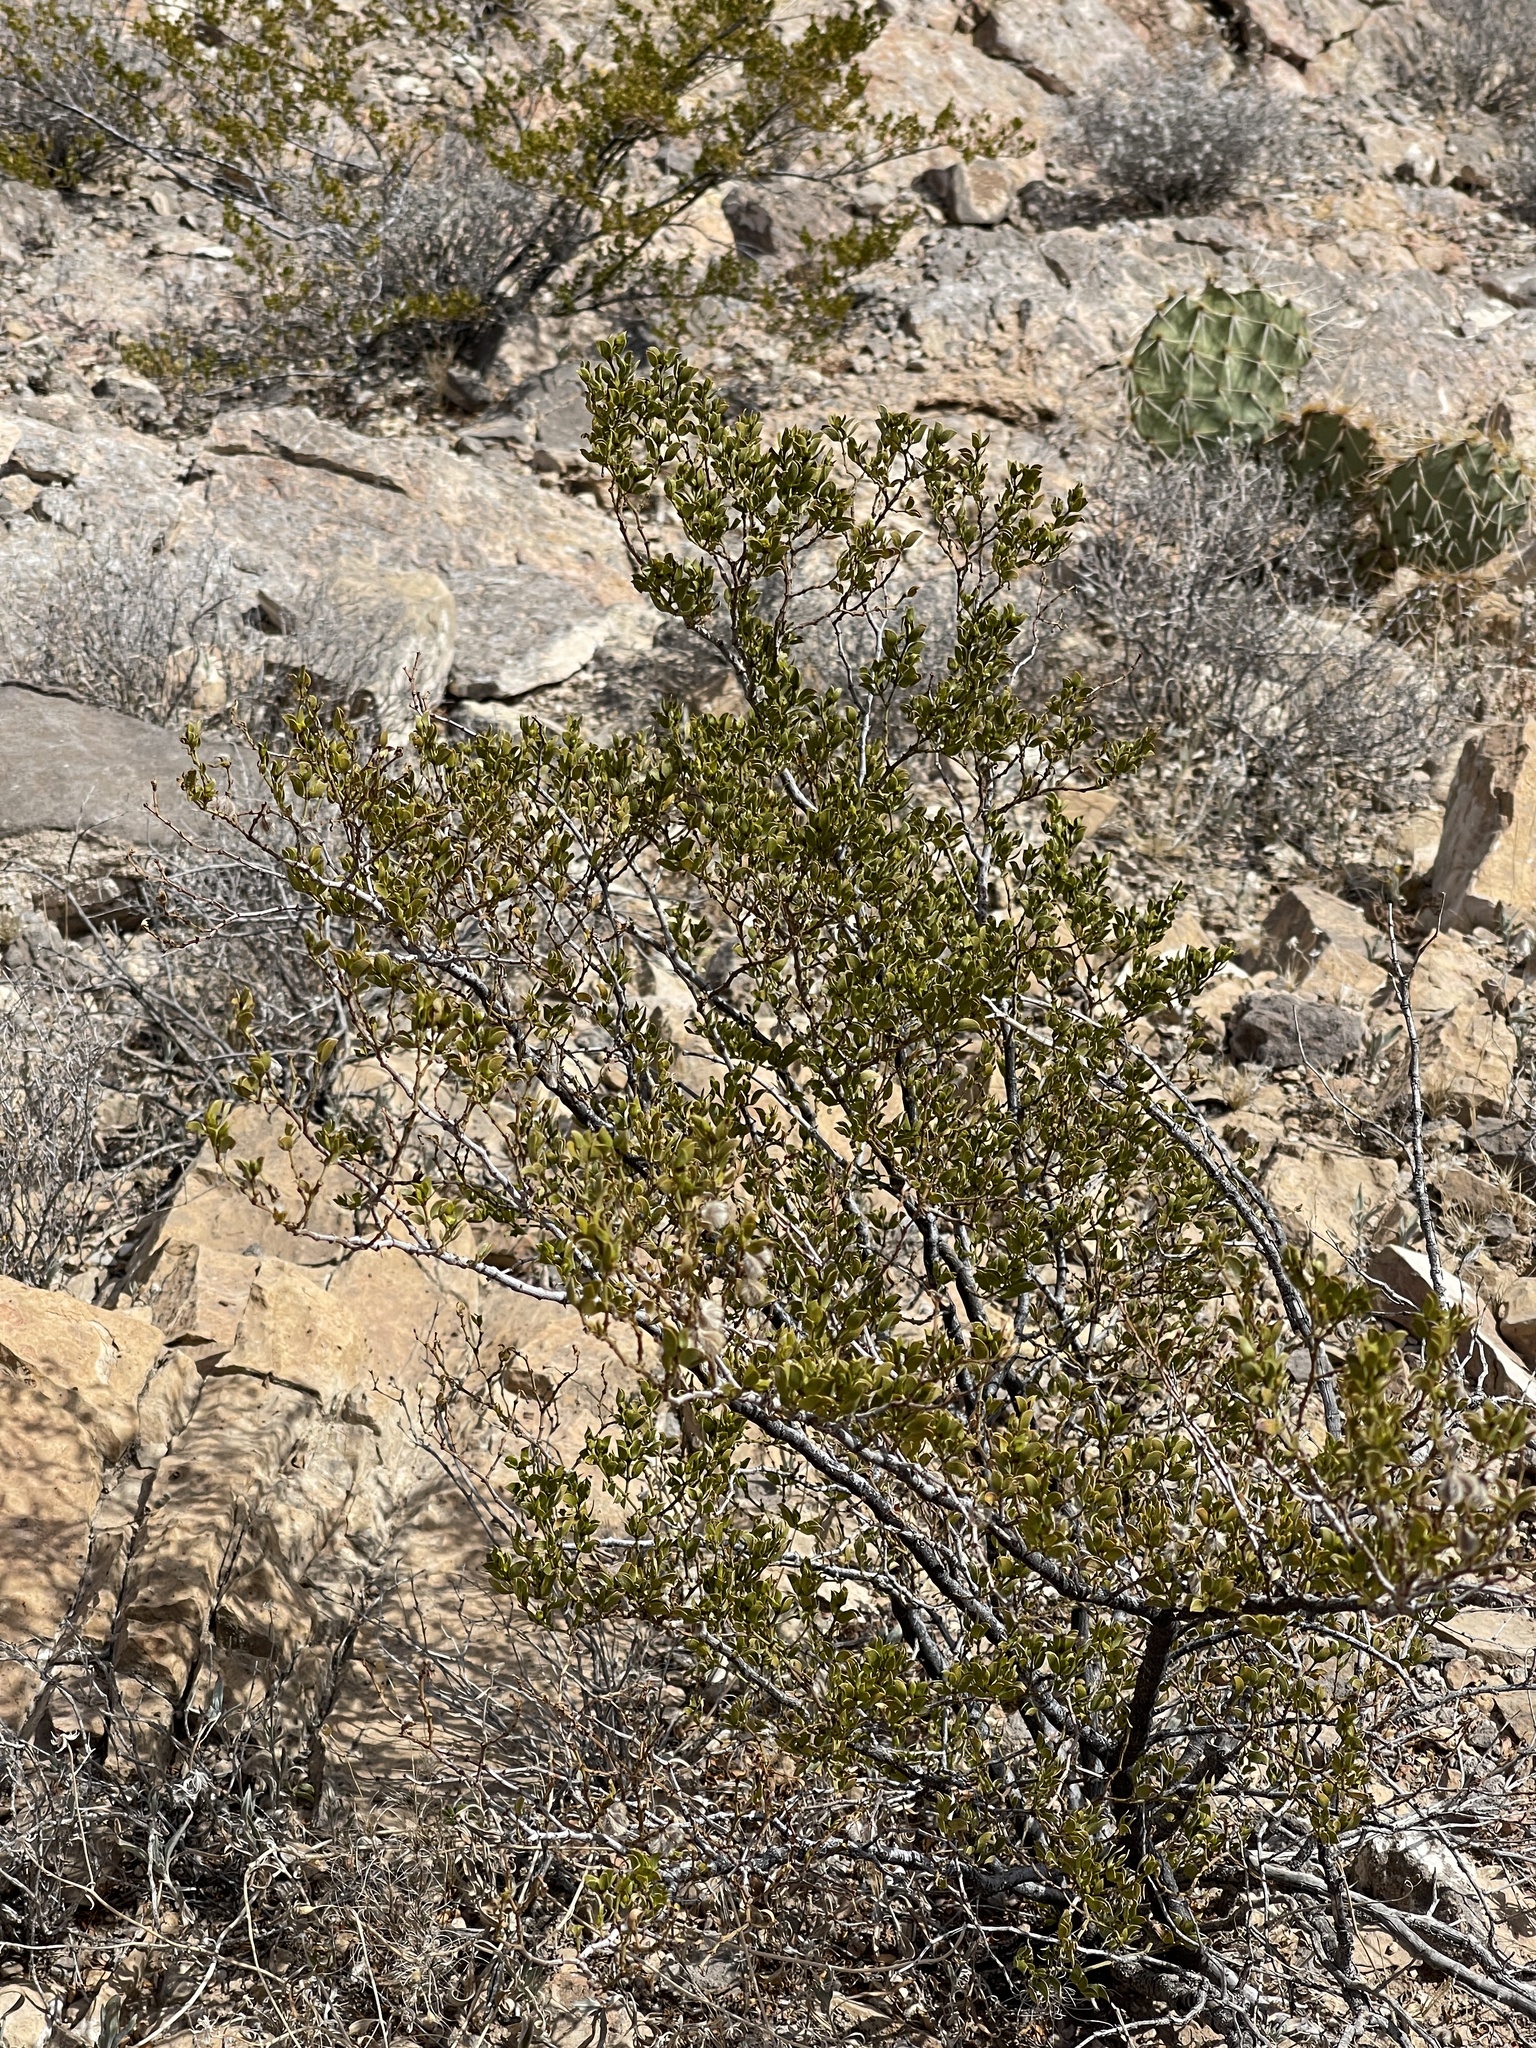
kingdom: Plantae
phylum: Tracheophyta
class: Magnoliopsida
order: Zygophyllales
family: Zygophyllaceae
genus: Larrea
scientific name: Larrea tridentata
